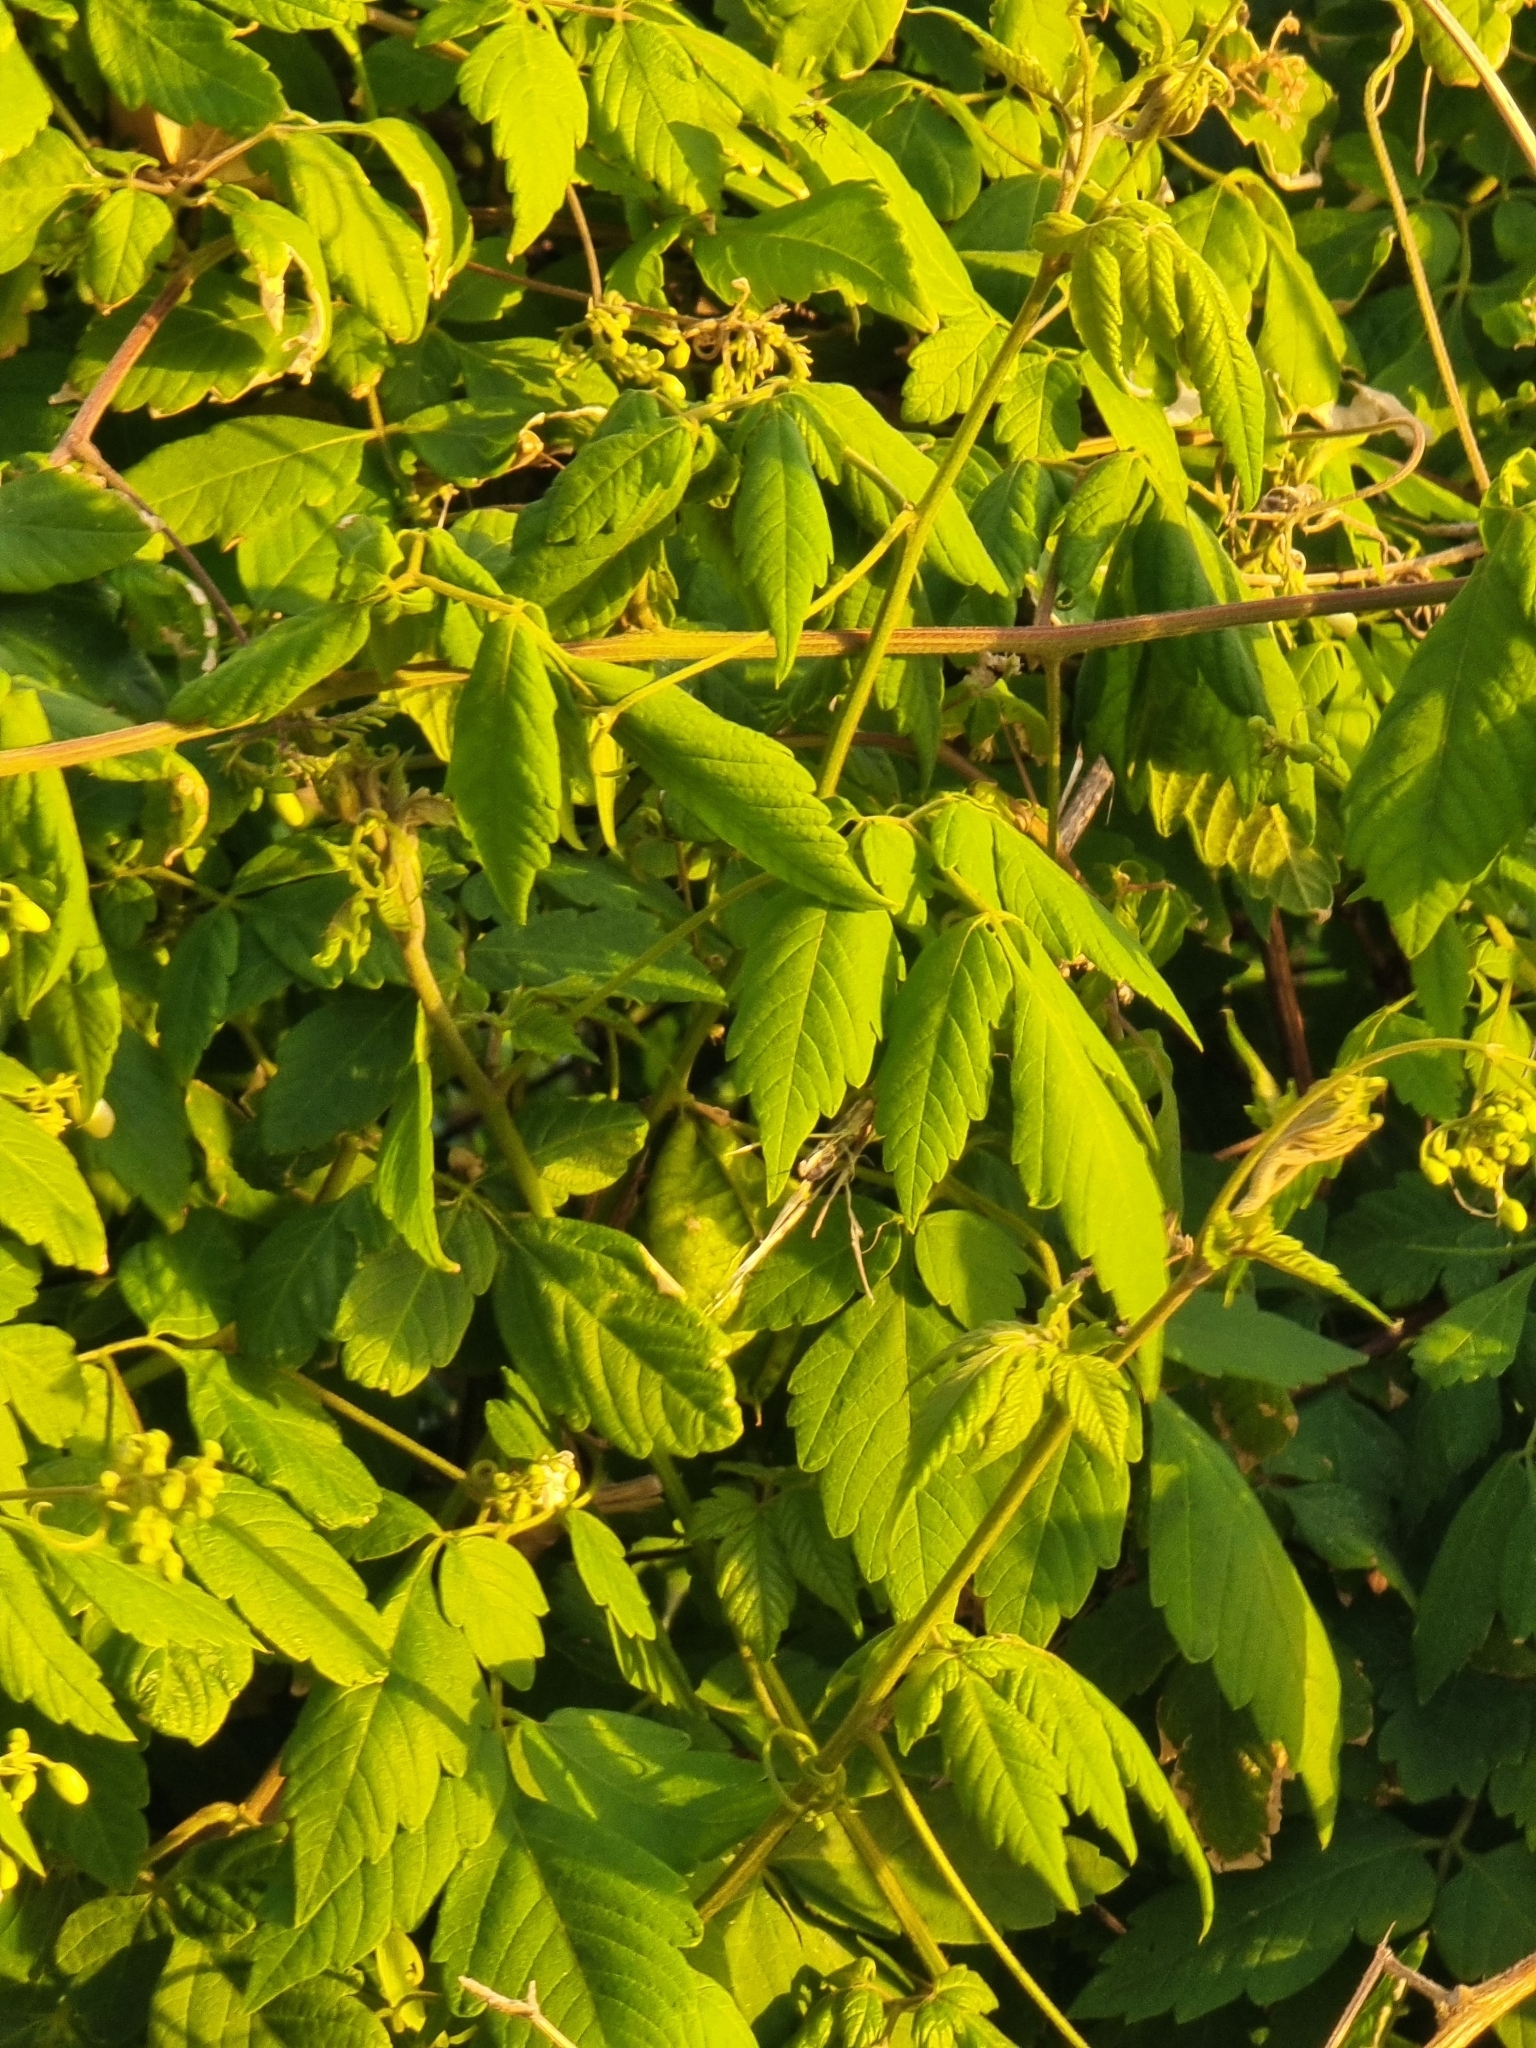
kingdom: Plantae
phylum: Tracheophyta
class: Magnoliopsida
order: Sapindales
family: Sapindaceae
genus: Cardiospermum
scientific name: Cardiospermum grandiflorum
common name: Balloon vine
